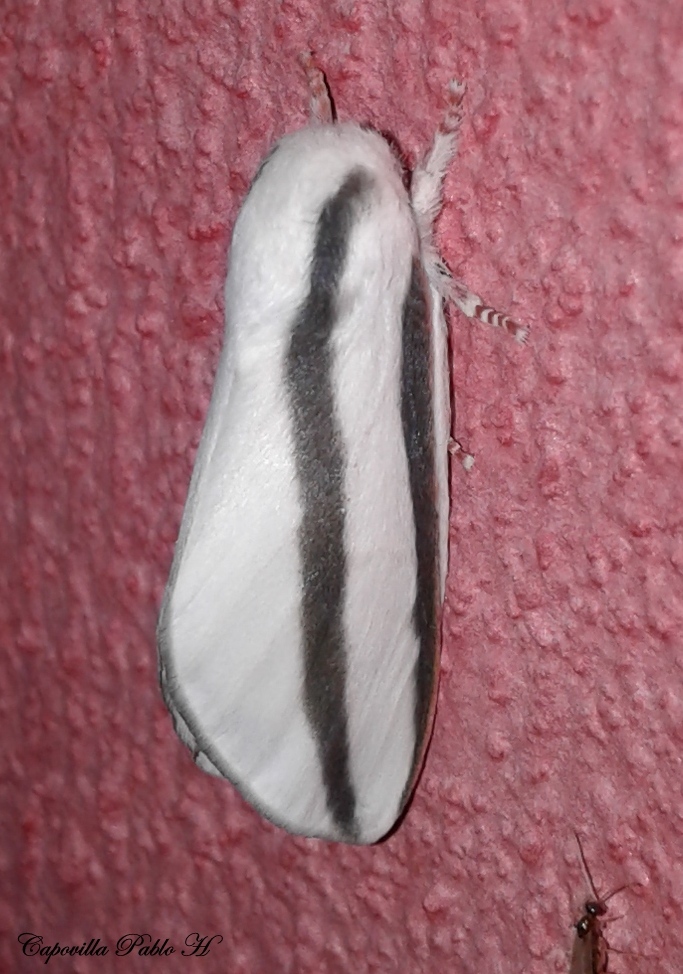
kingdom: Animalia
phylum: Arthropoda
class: Insecta
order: Lepidoptera
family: Saturniidae
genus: Giacomellia
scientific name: Giacomellia bilineata
